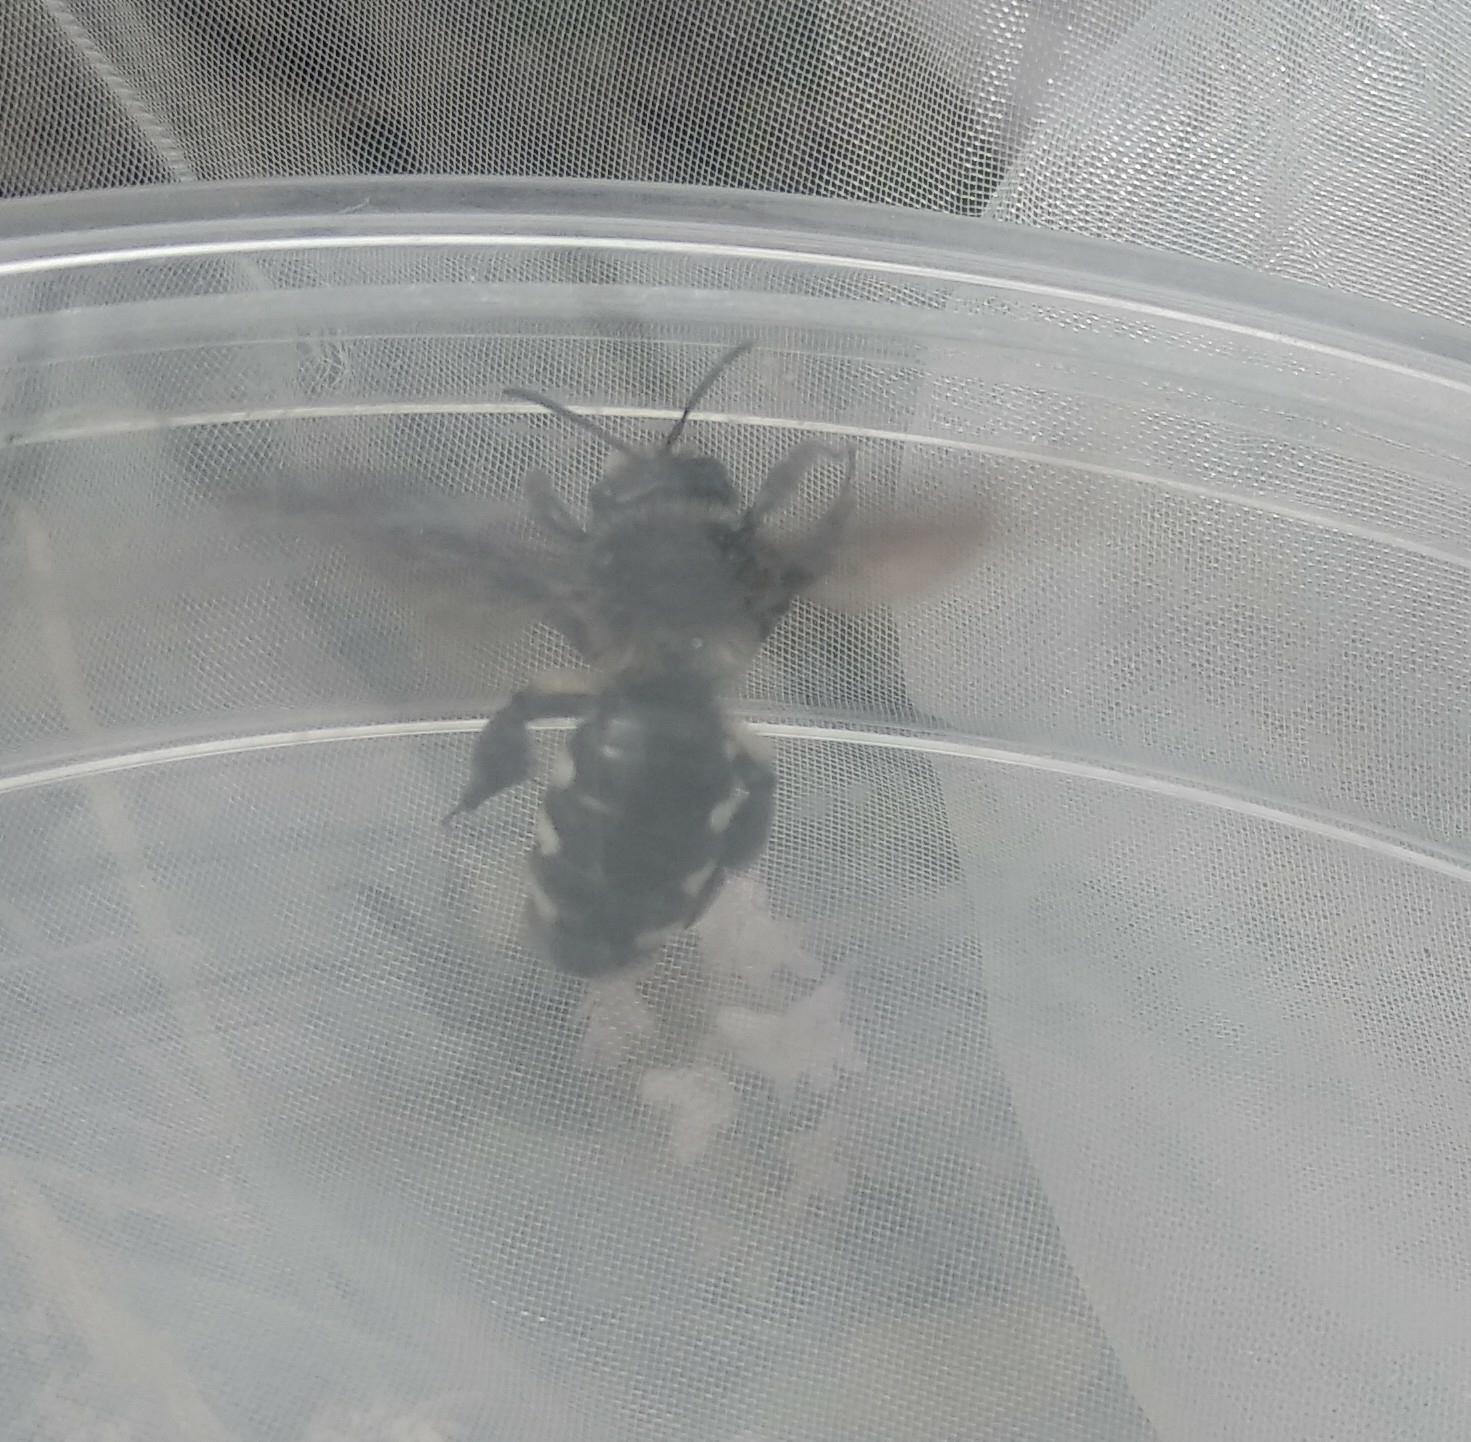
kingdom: Animalia
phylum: Arthropoda
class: Insecta
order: Hymenoptera
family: Andrenidae
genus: Andrena
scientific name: Andrena albopunctata
